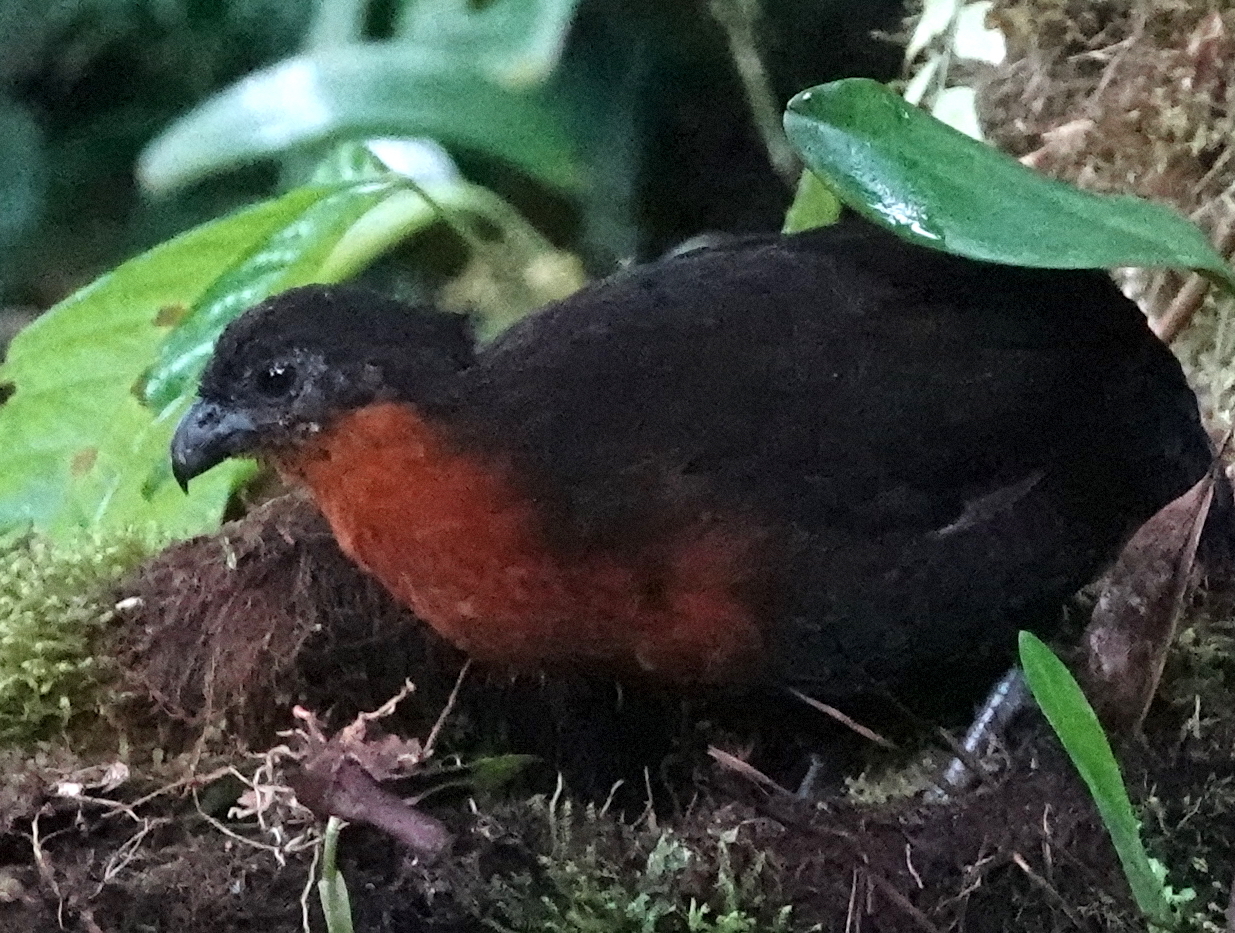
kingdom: Animalia
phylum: Chordata
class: Aves
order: Galliformes
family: Odontophoridae
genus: Odontophorus
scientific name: Odontophorus melanonotus
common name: Dark-backed wood-quail
